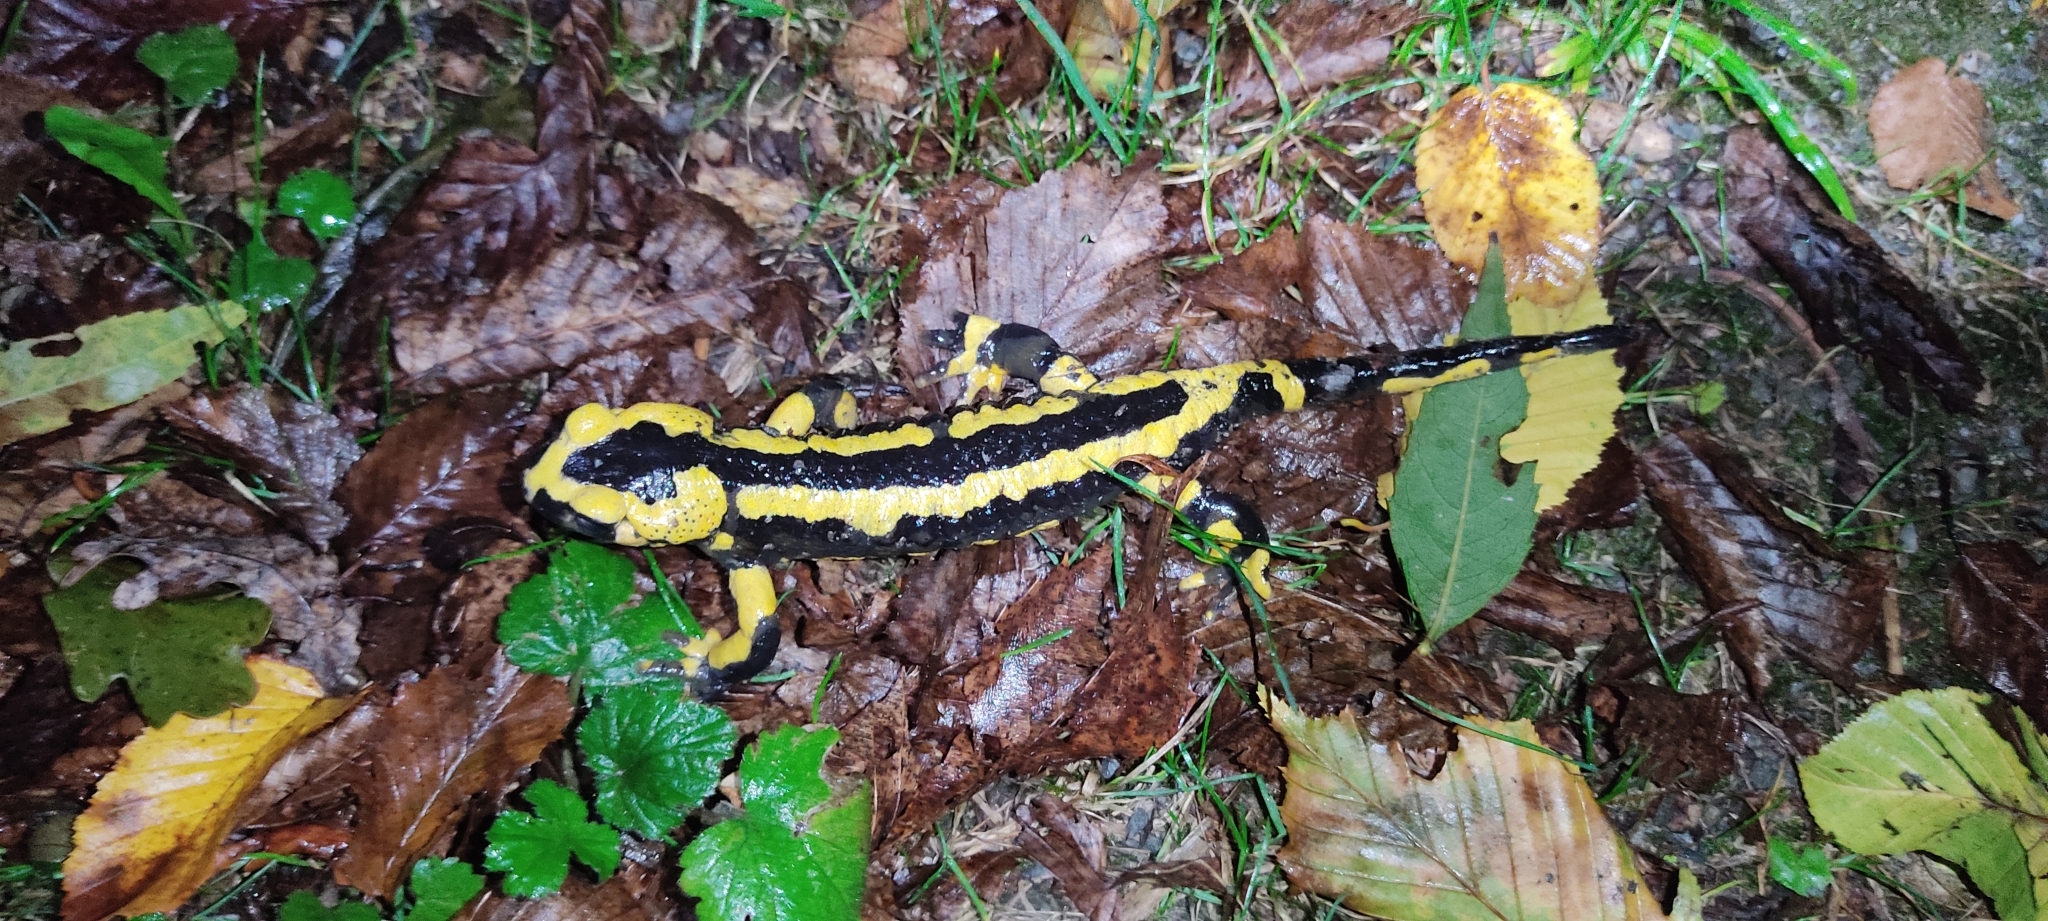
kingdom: Animalia
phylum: Chordata
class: Amphibia
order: Caudata
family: Salamandridae
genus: Salamandra
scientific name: Salamandra salamandra
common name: Fire salamander
